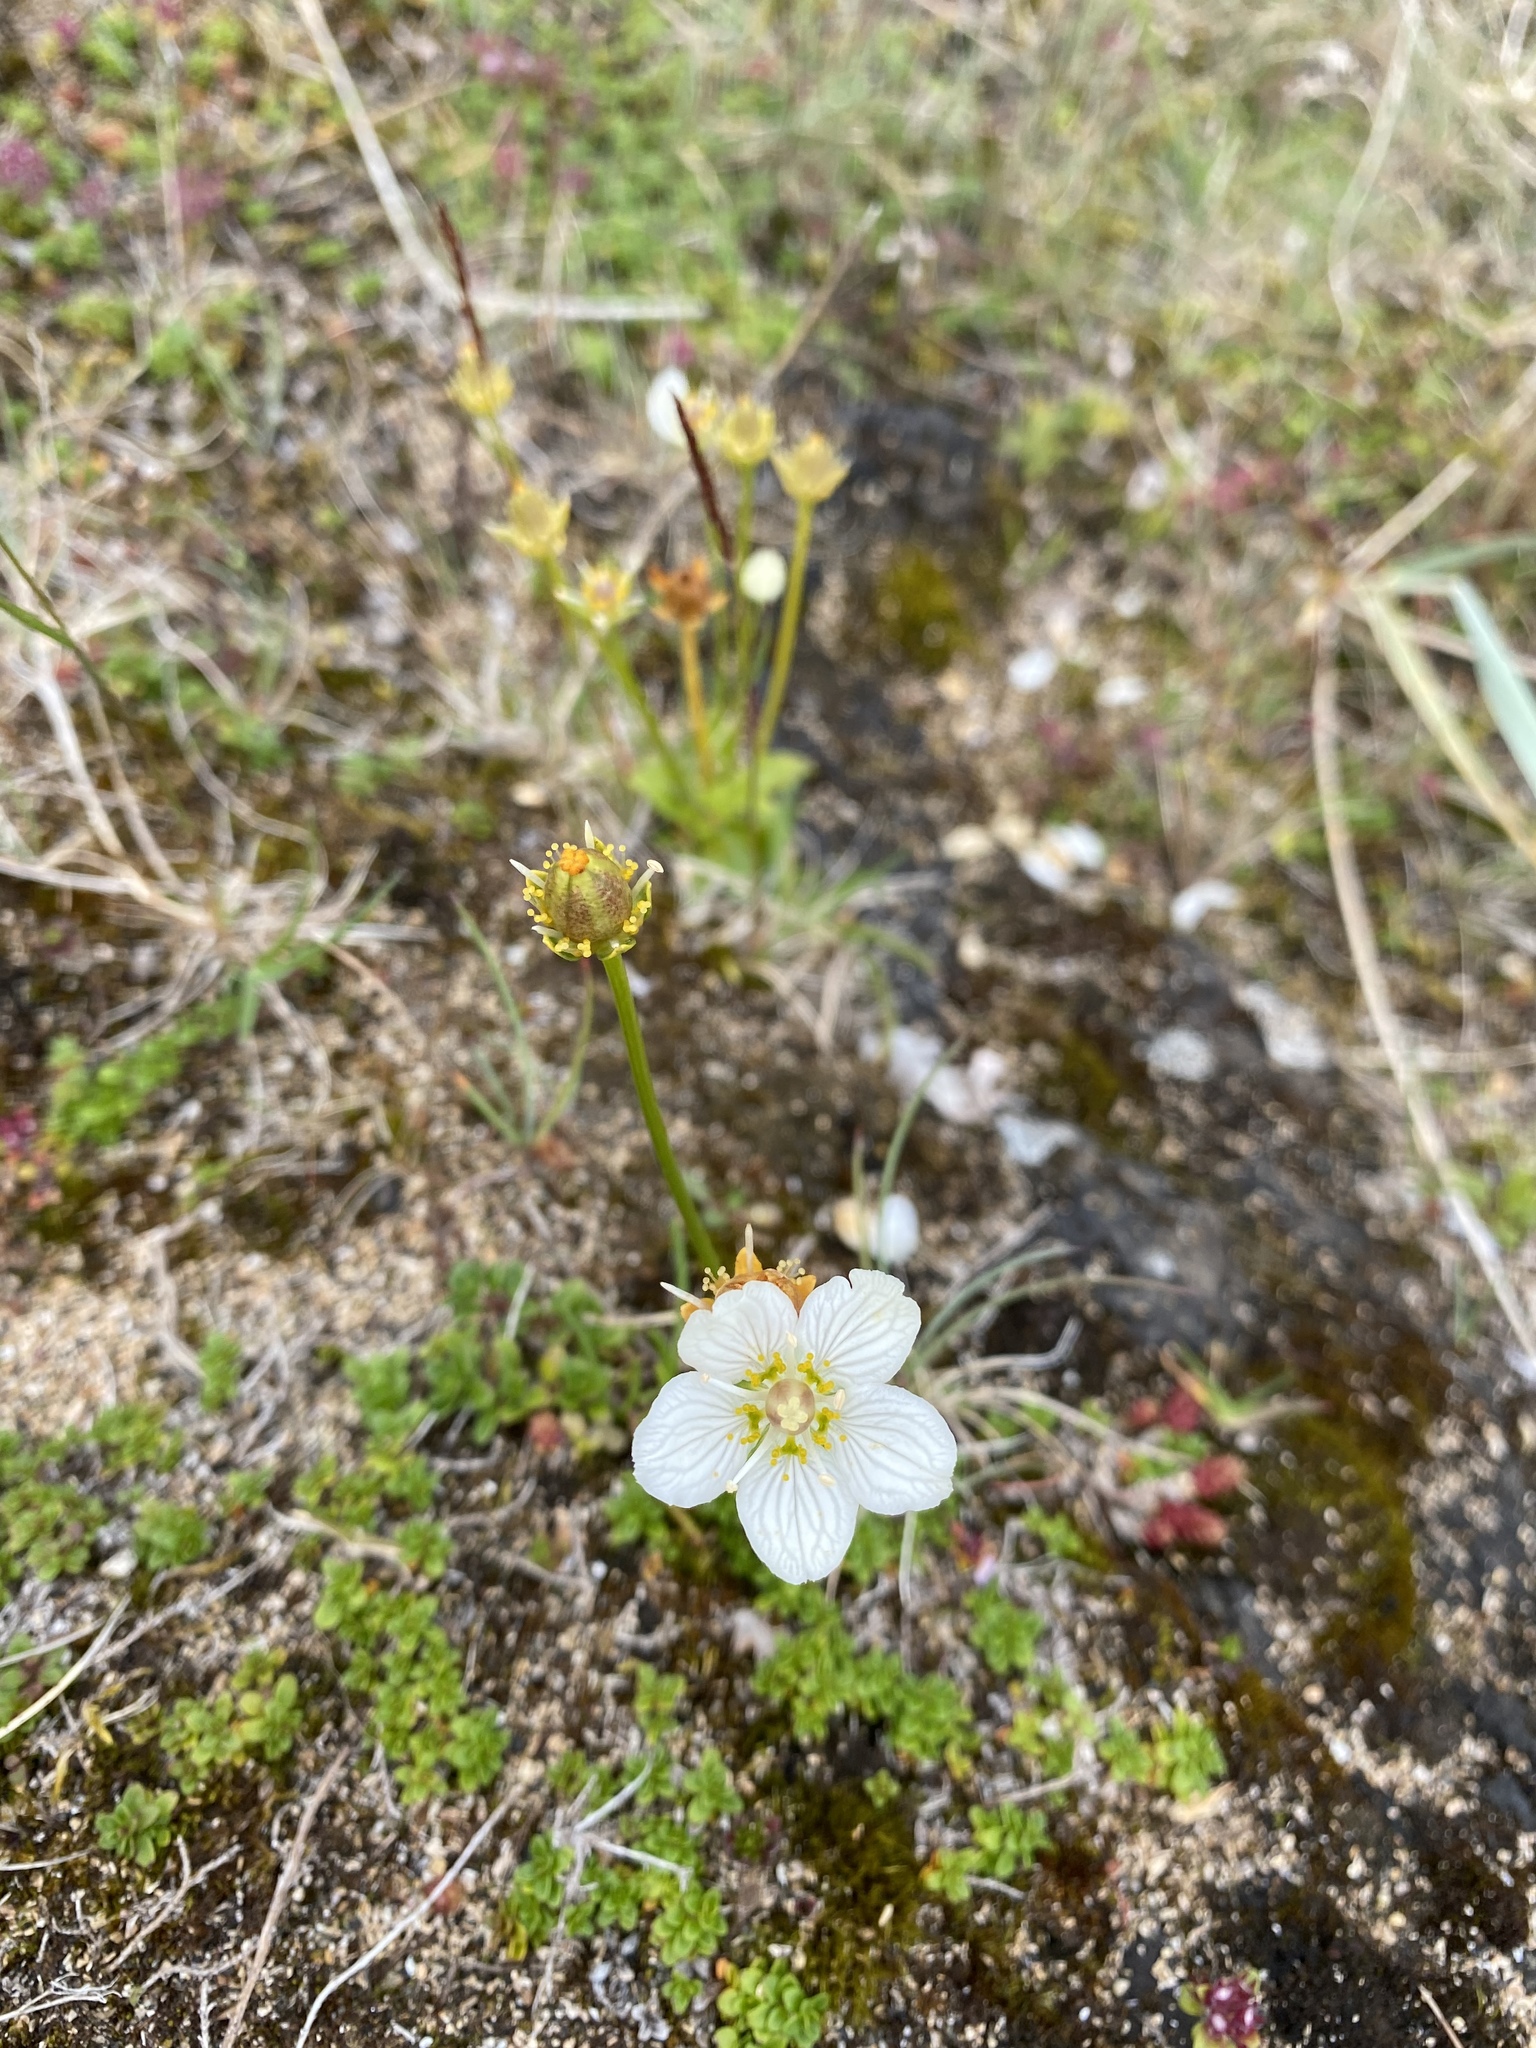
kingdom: Plantae
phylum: Tracheophyta
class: Magnoliopsida
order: Celastrales
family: Parnassiaceae
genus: Parnassia
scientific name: Parnassia palustris
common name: Grass-of-parnassus
